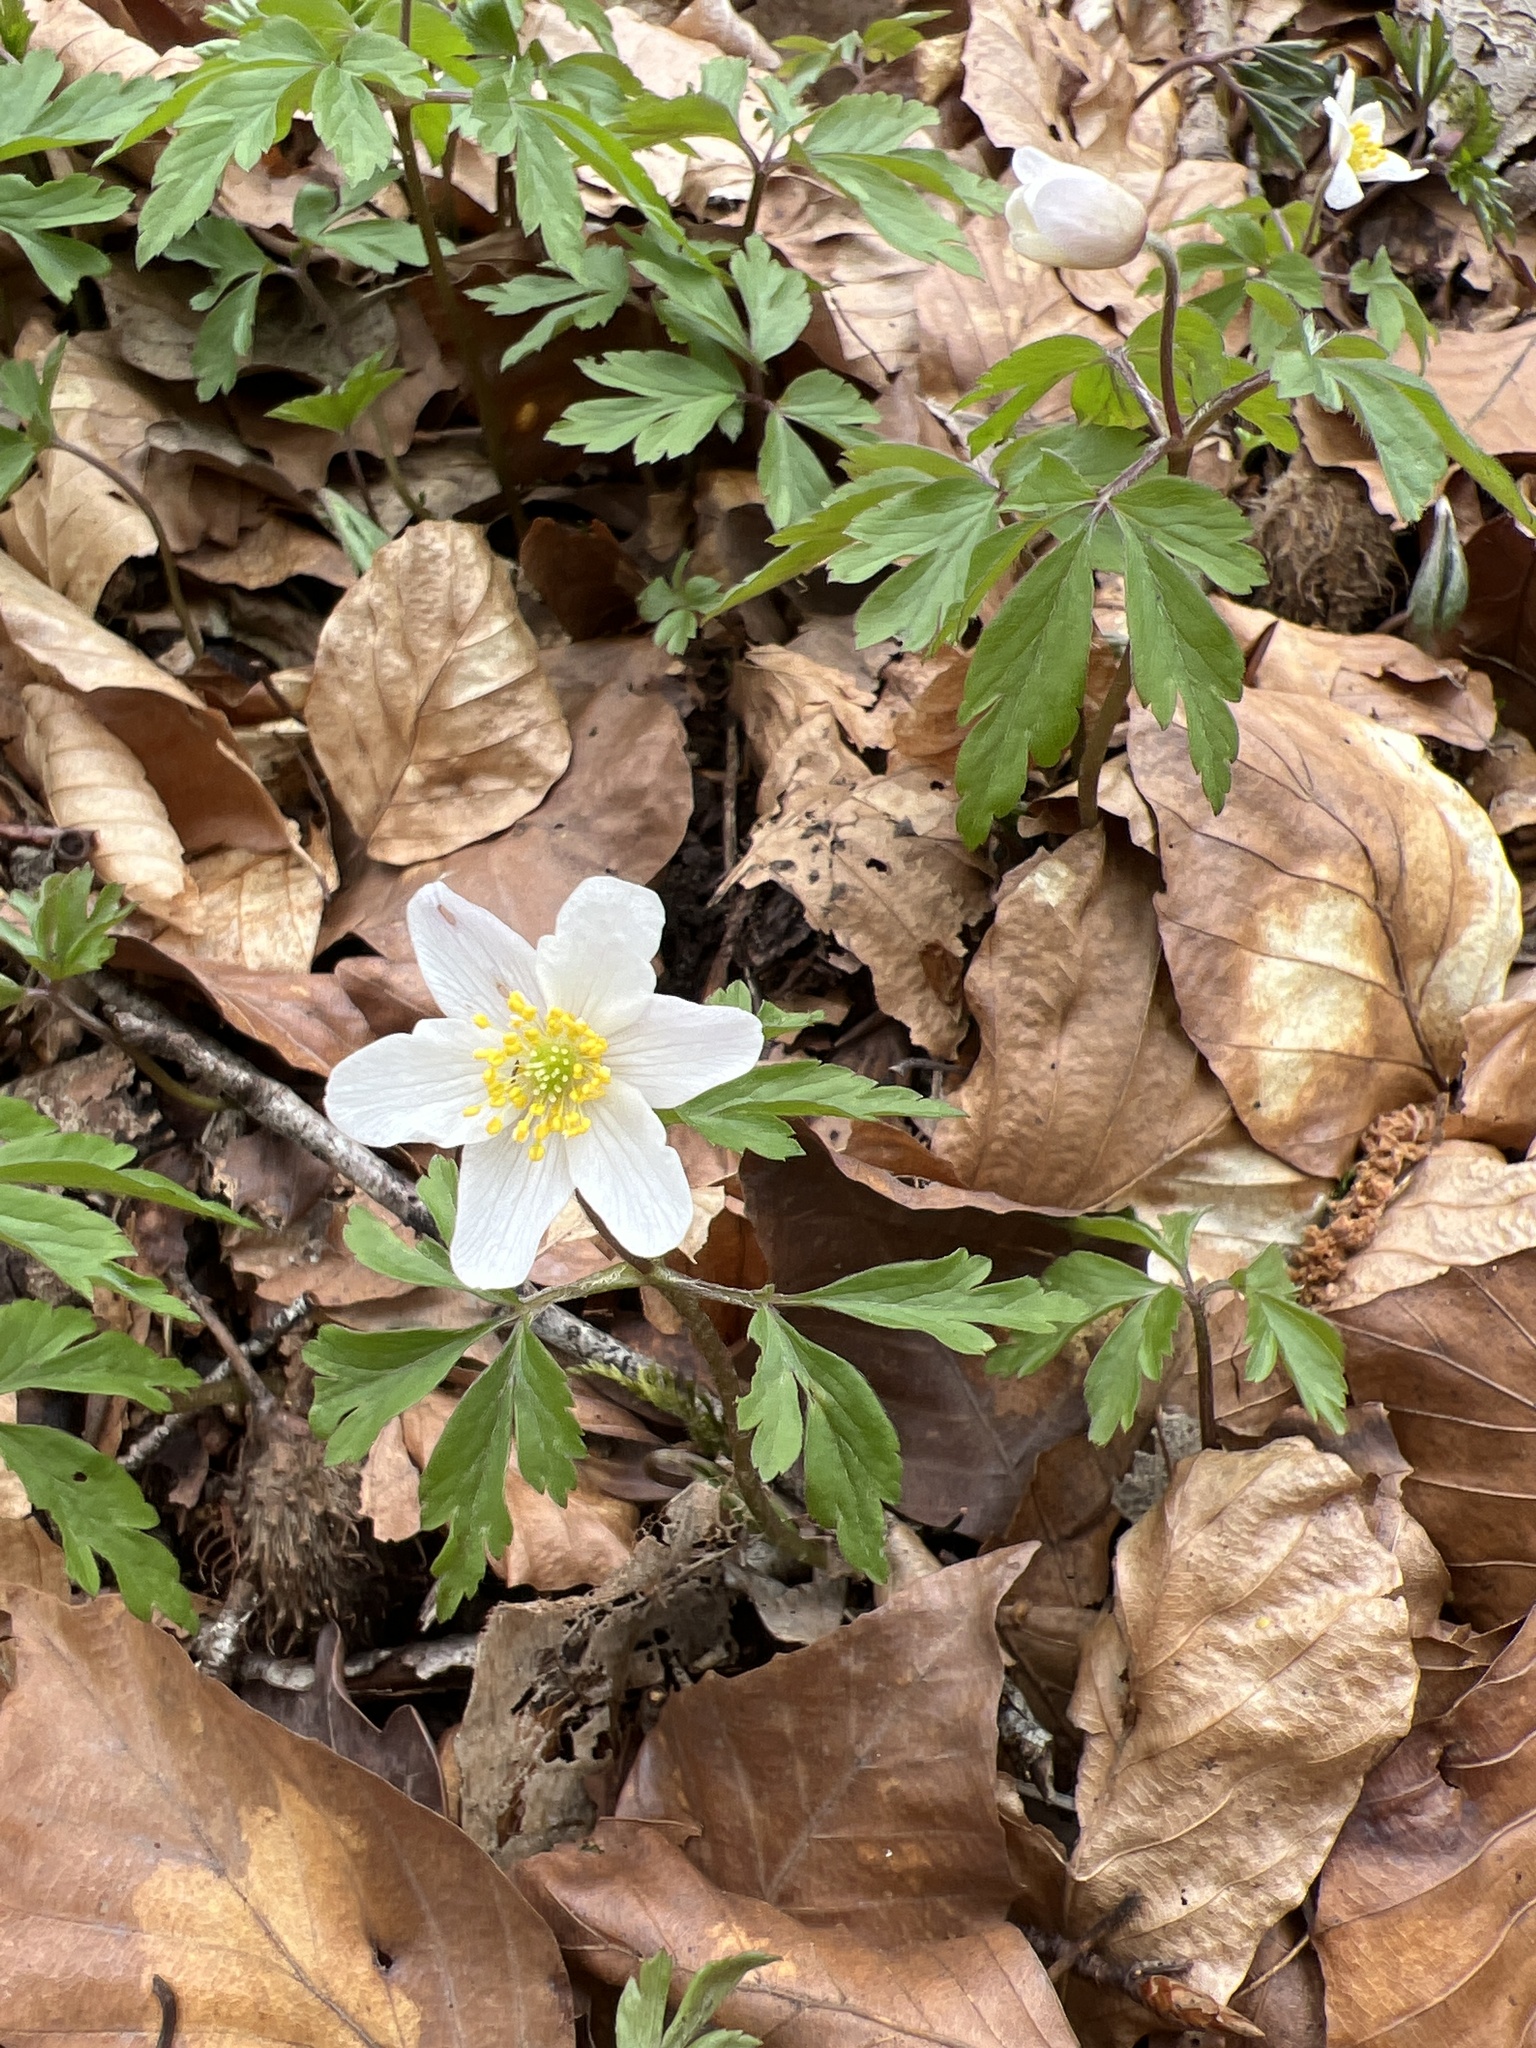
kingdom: Plantae
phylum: Tracheophyta
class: Magnoliopsida
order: Ranunculales
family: Ranunculaceae
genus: Anemone
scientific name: Anemone nemorosa
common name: Wood anemone
